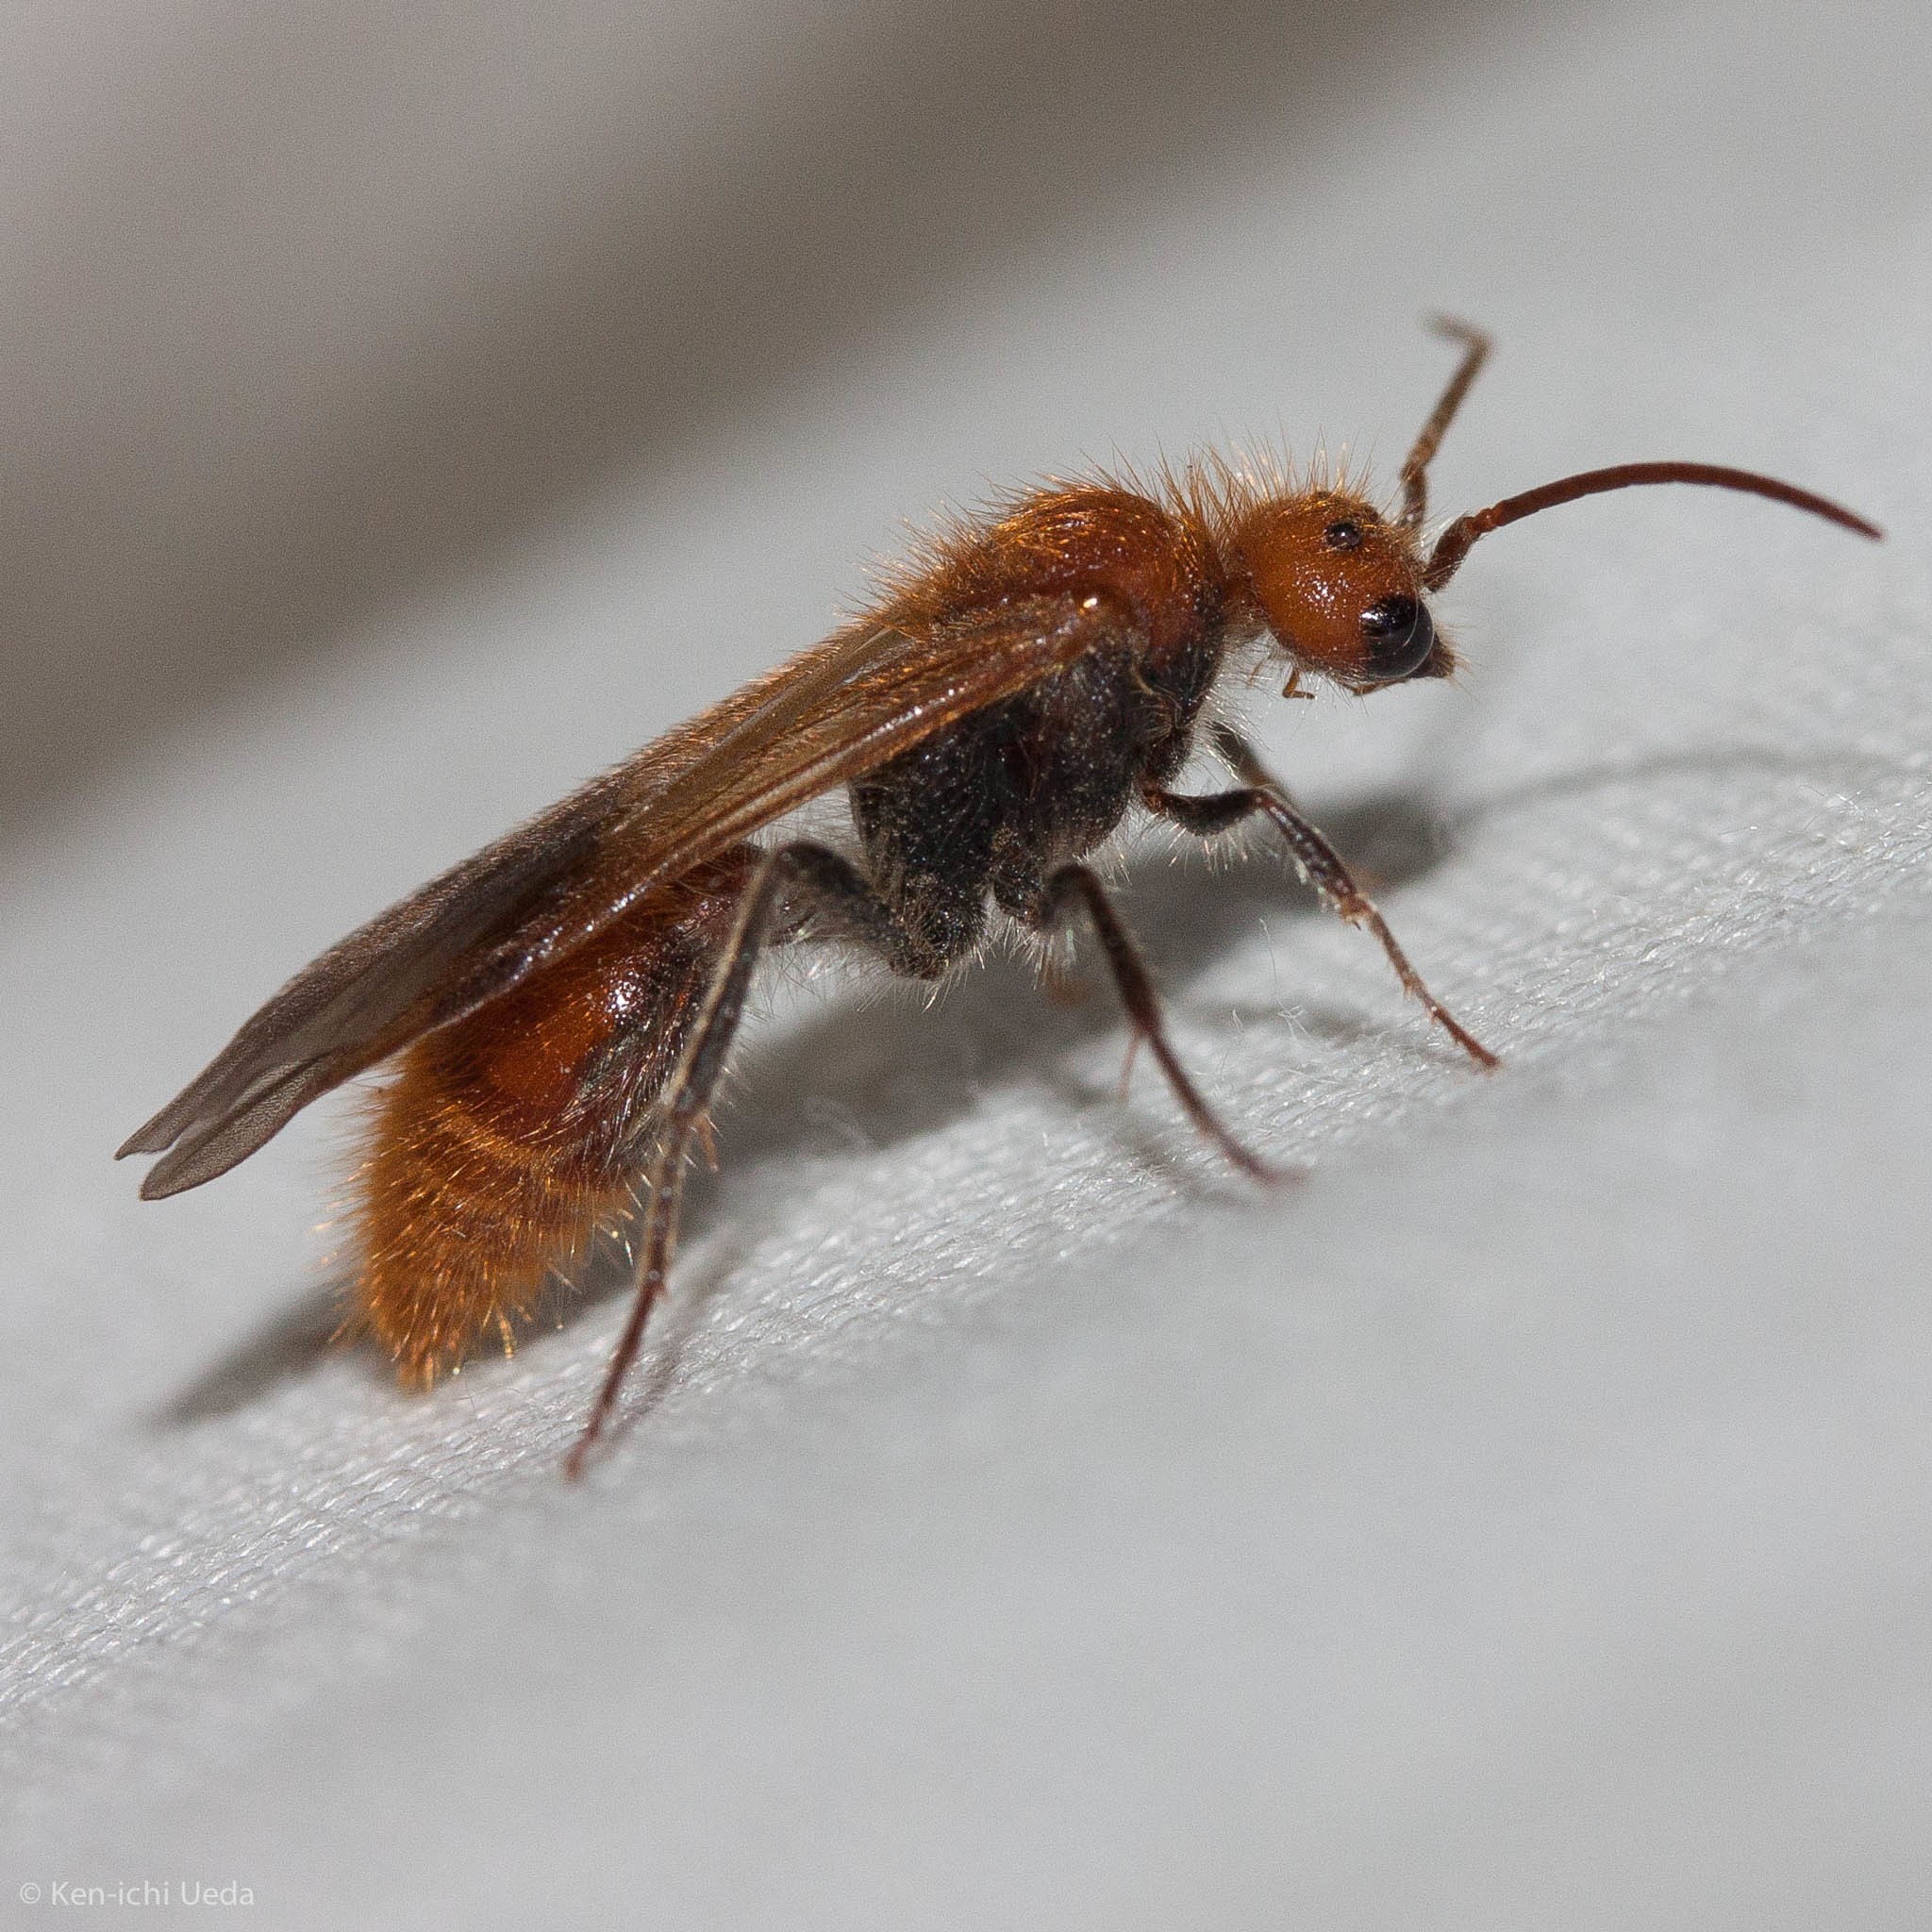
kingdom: Animalia
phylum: Arthropoda
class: Insecta
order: Hymenoptera
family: Mutillidae
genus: Sphaeropthalma
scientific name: Sphaeropthalma unicolor
